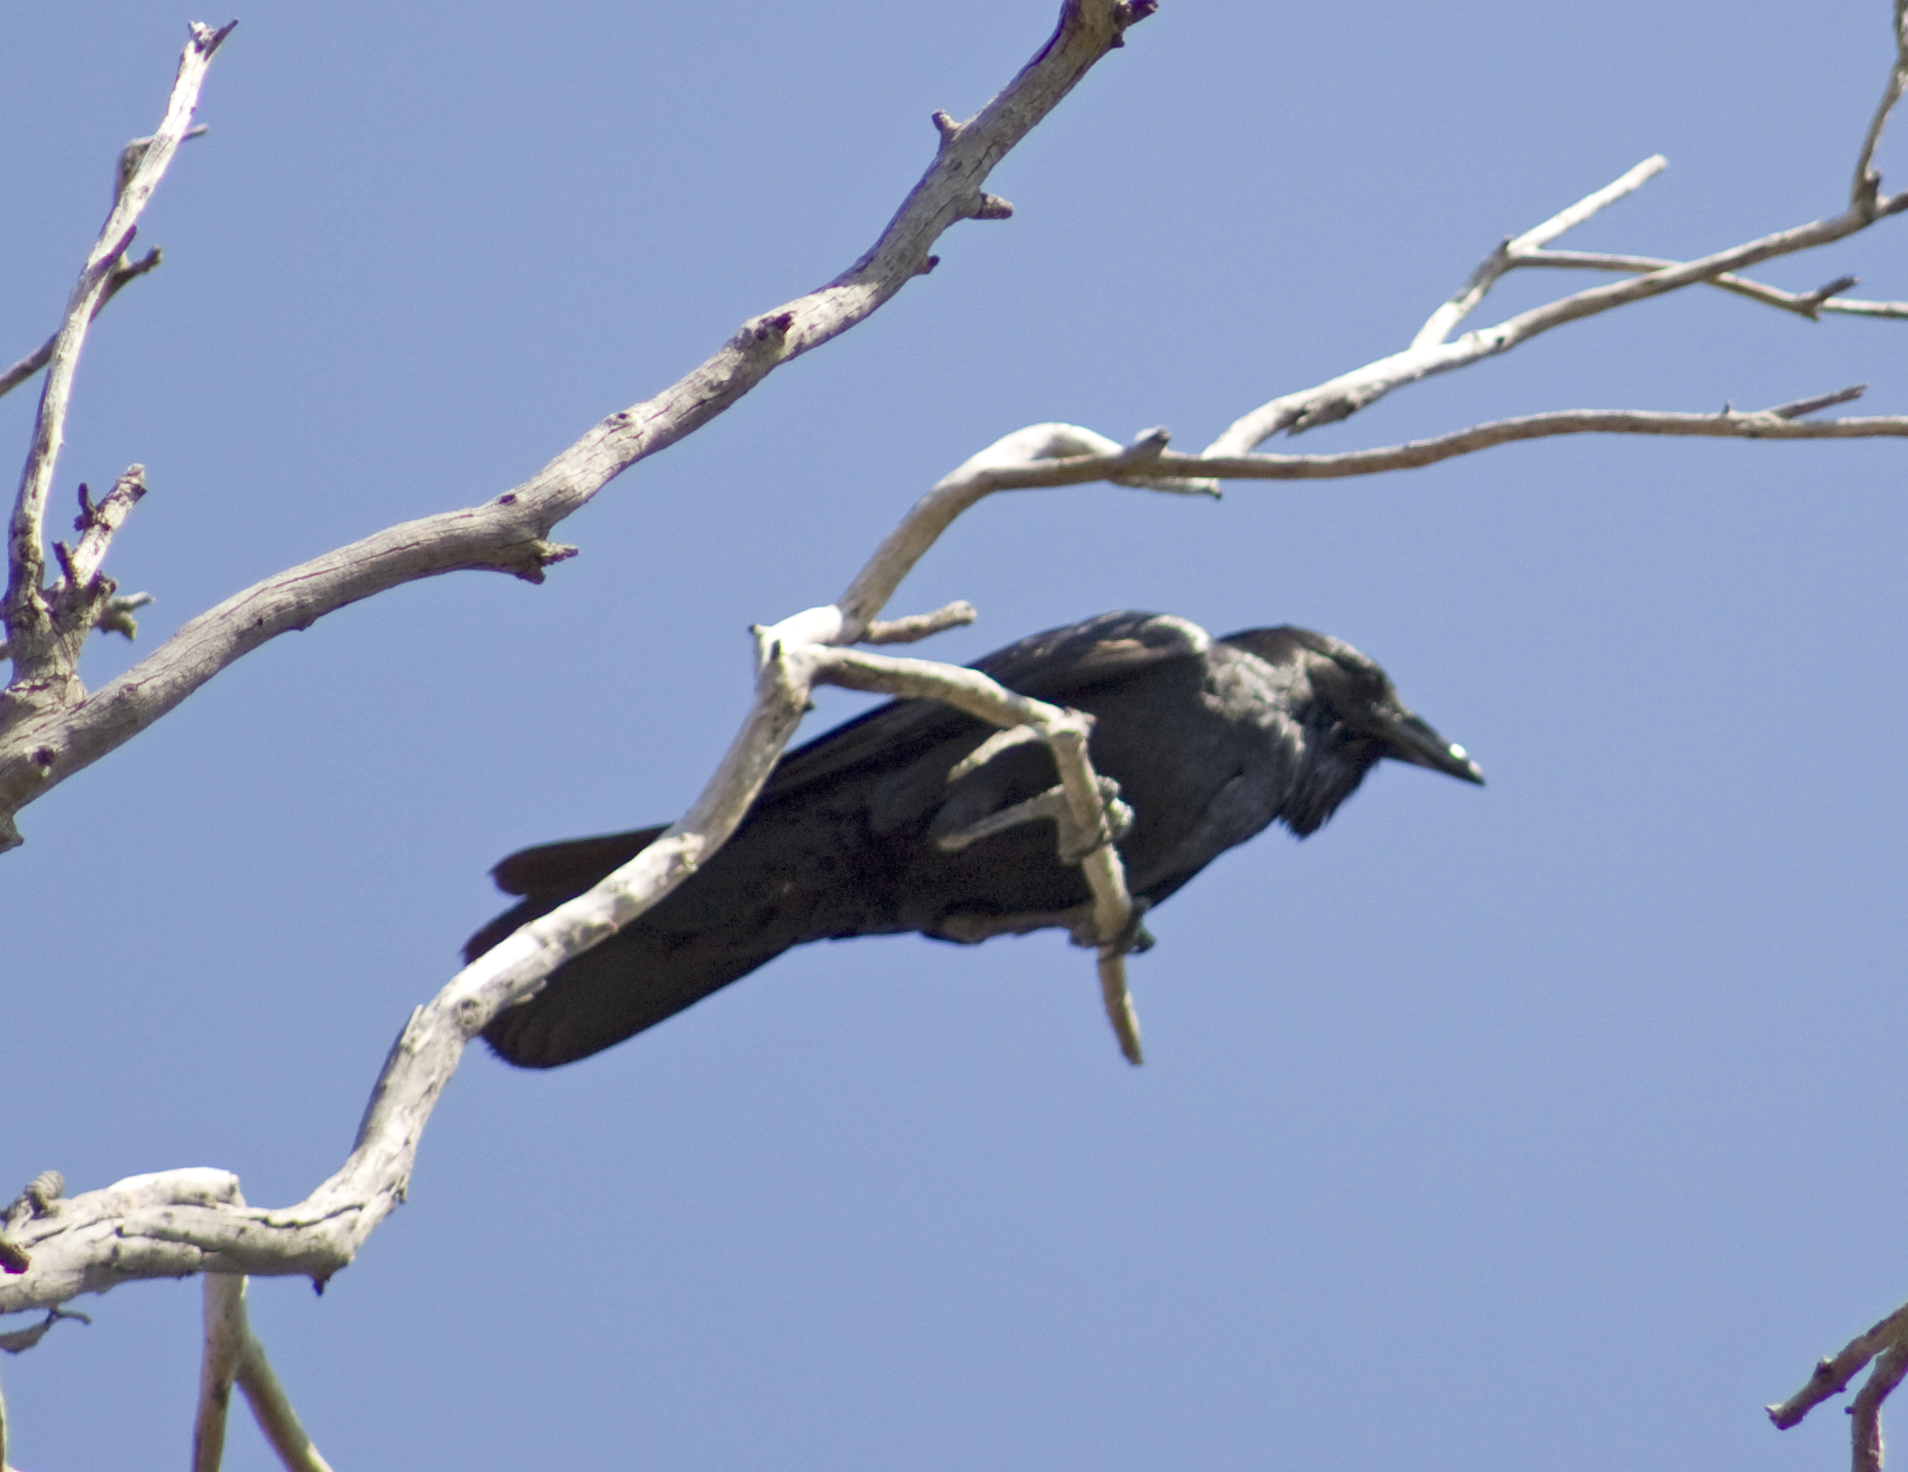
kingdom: Animalia
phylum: Chordata
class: Aves
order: Passeriformes
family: Corvidae
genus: Corvus
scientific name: Corvus coronoides
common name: Australian raven
